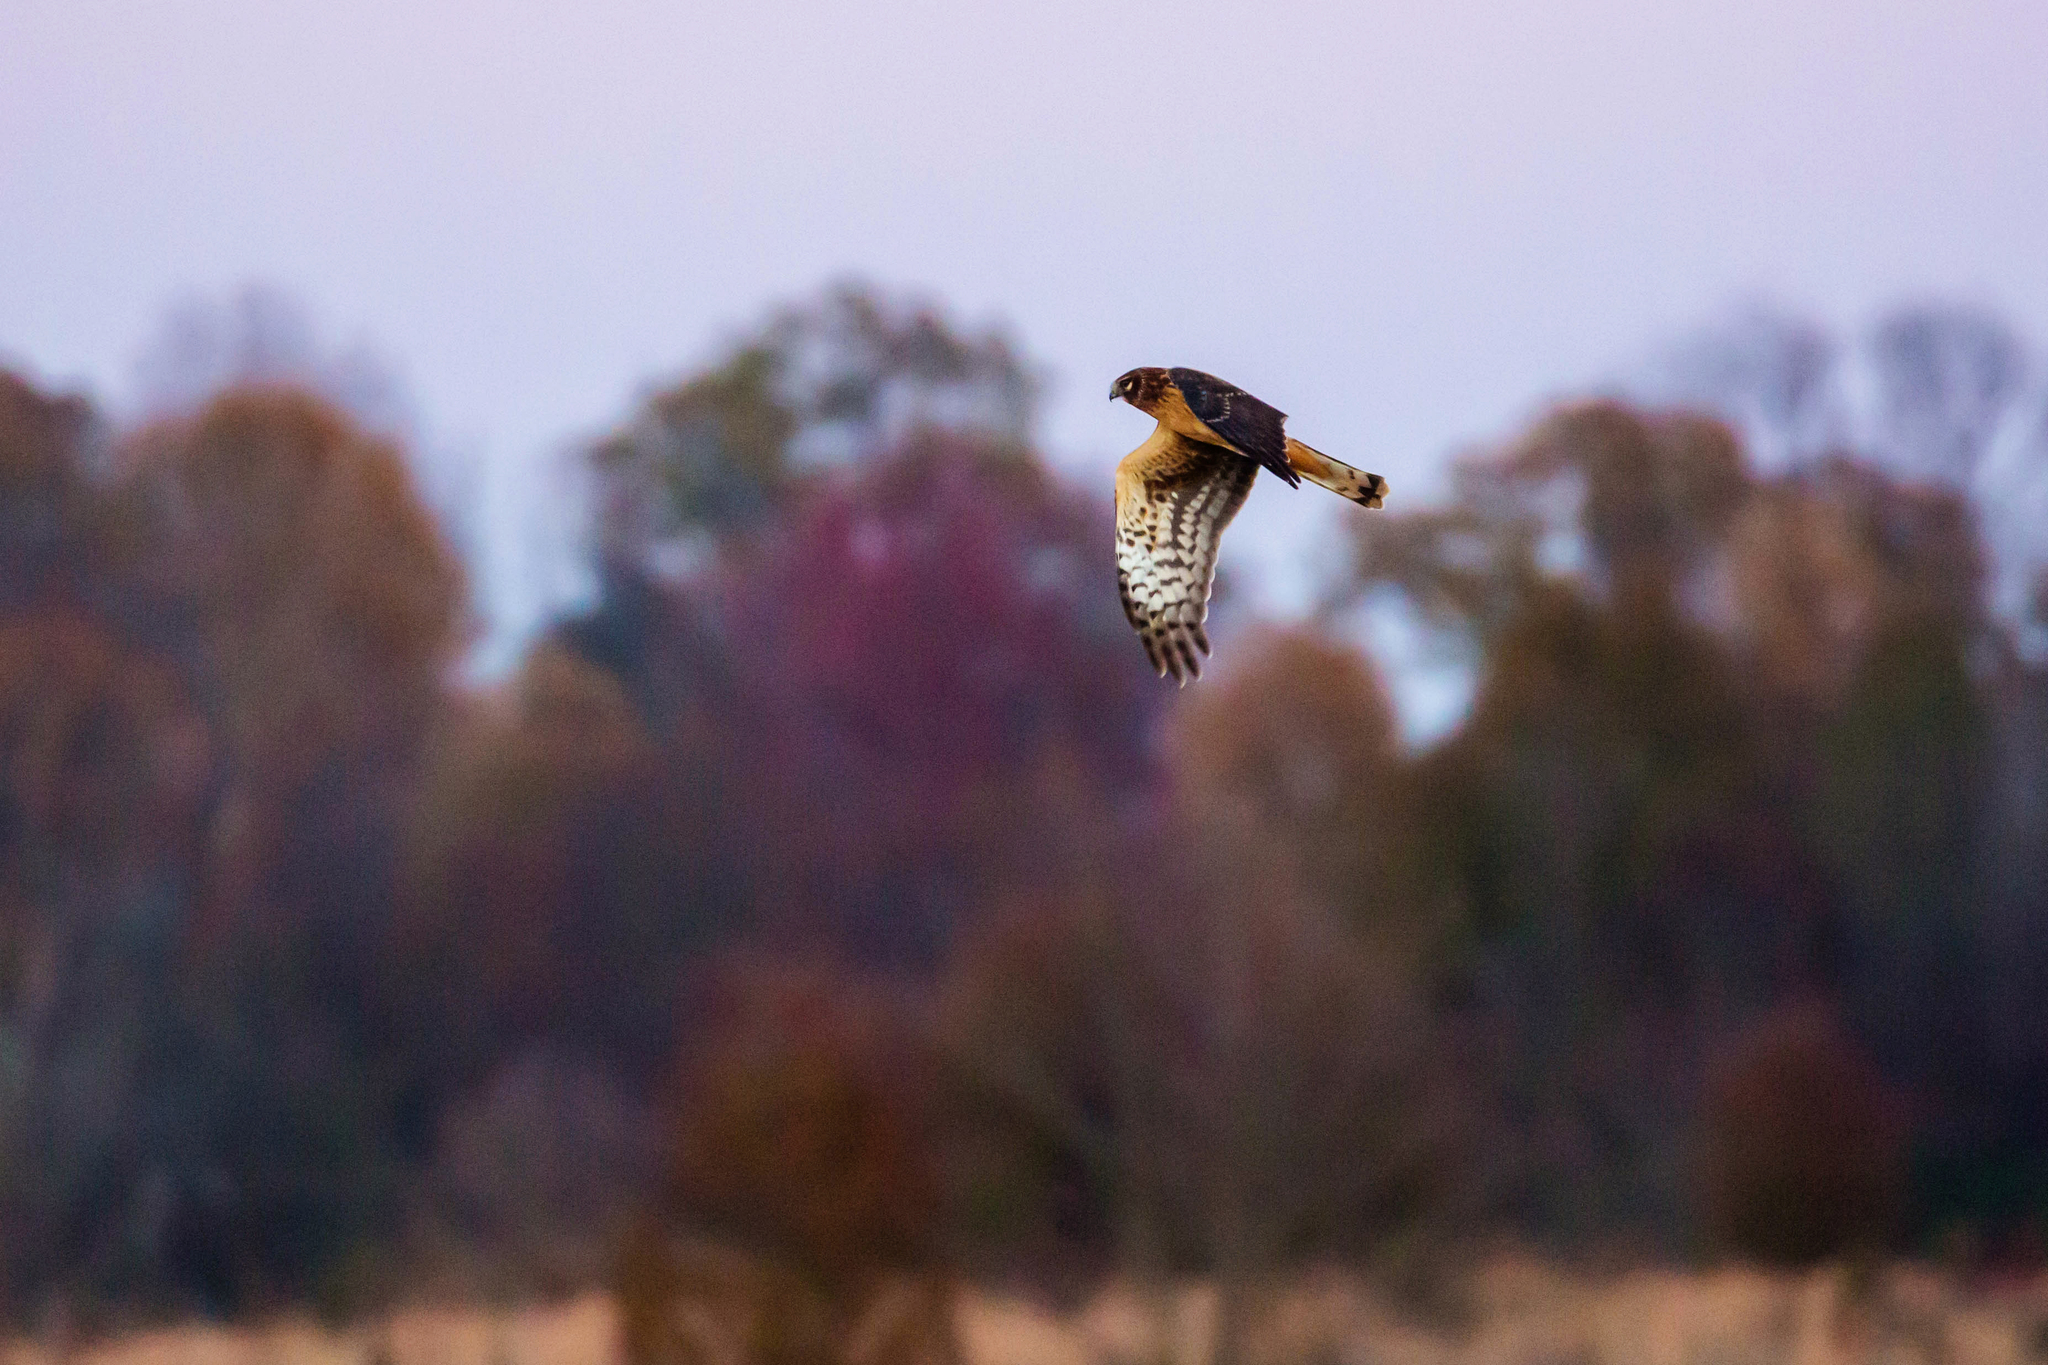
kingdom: Animalia
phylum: Chordata
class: Aves
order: Accipitriformes
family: Accipitridae
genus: Circus
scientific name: Circus cyaneus
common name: Hen harrier
